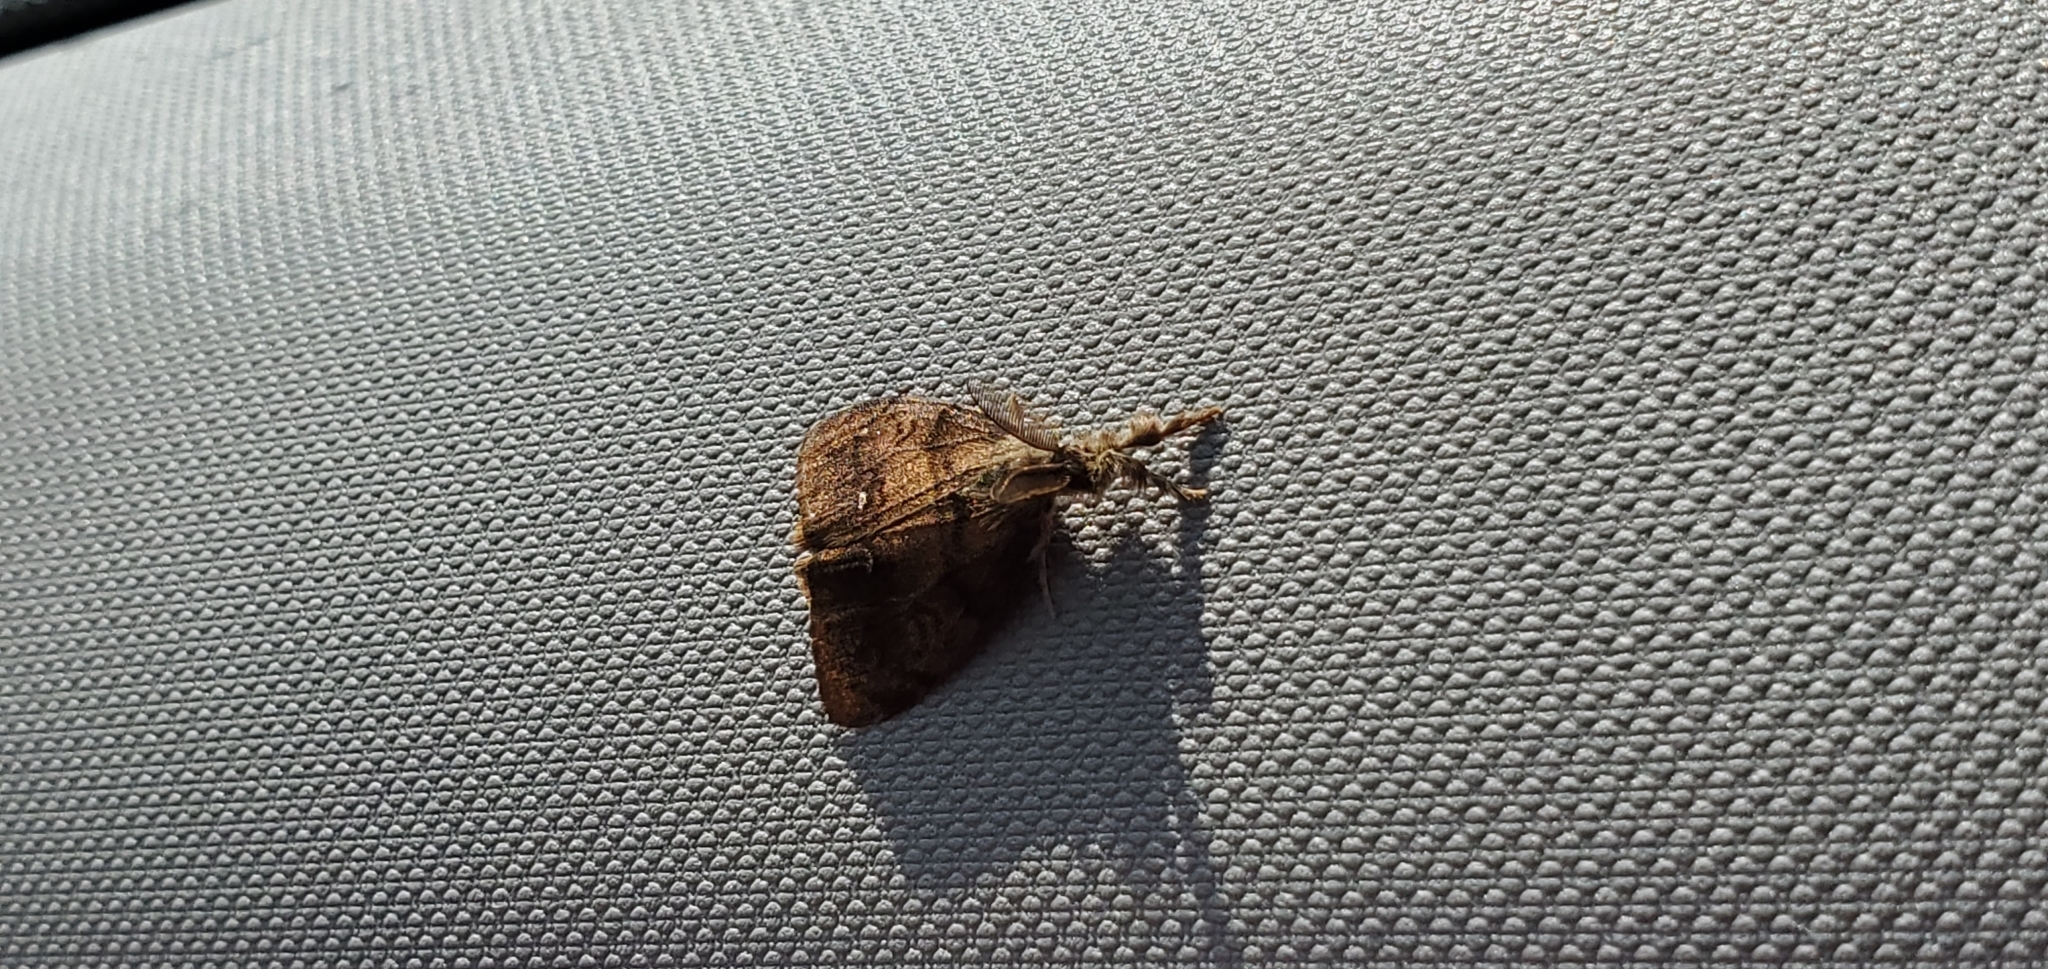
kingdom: Animalia
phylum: Arthropoda
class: Insecta
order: Lepidoptera
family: Erebidae
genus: Orgyia
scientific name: Orgyia antiqua
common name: Vapourer
